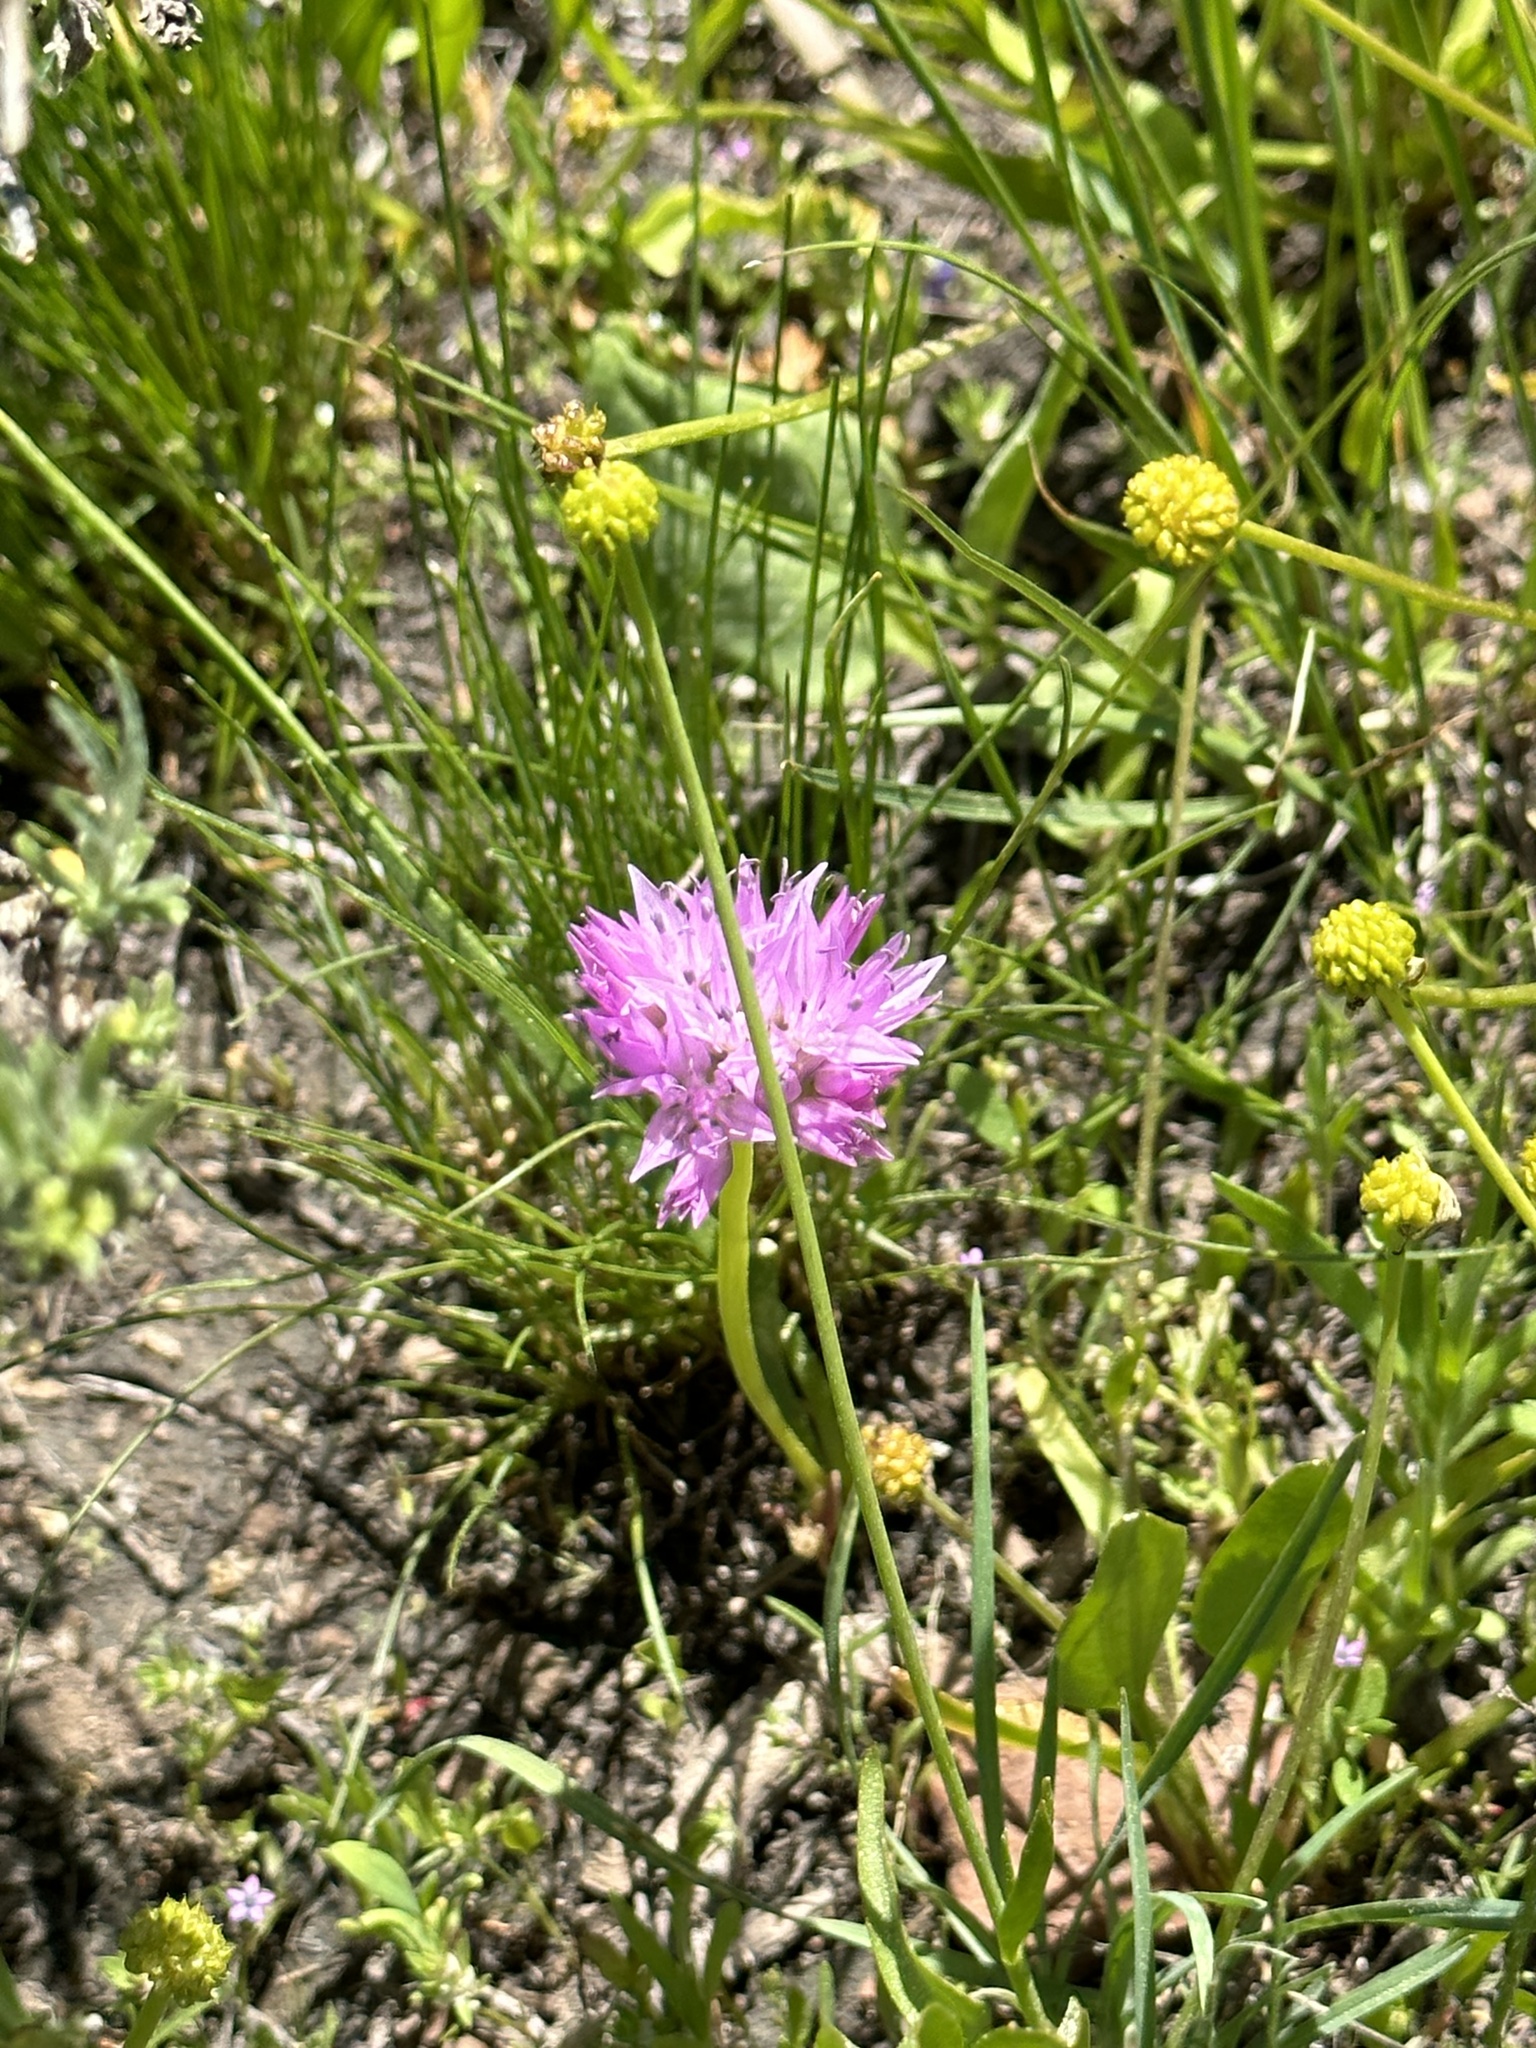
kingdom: Plantae
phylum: Tracheophyta
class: Liliopsida
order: Asparagales
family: Amaryllidaceae
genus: Allium
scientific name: Allium lemmonii
